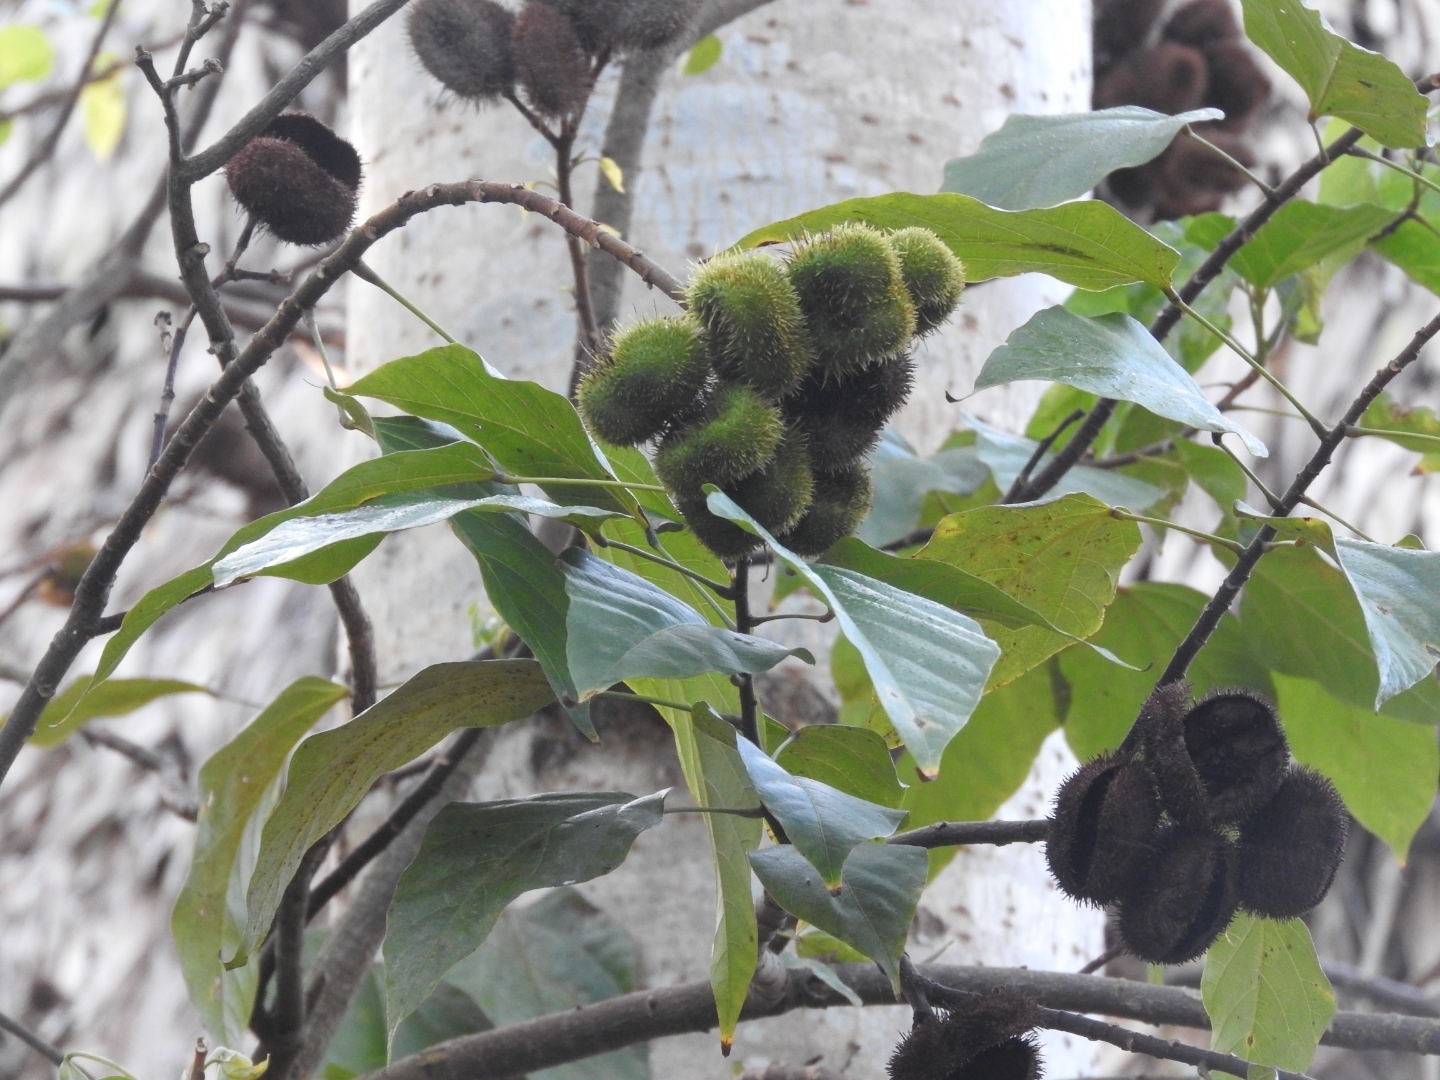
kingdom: Plantae
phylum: Tracheophyta
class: Magnoliopsida
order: Malvales
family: Bixaceae
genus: Bixa
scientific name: Bixa orellana
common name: Lipsticktree
